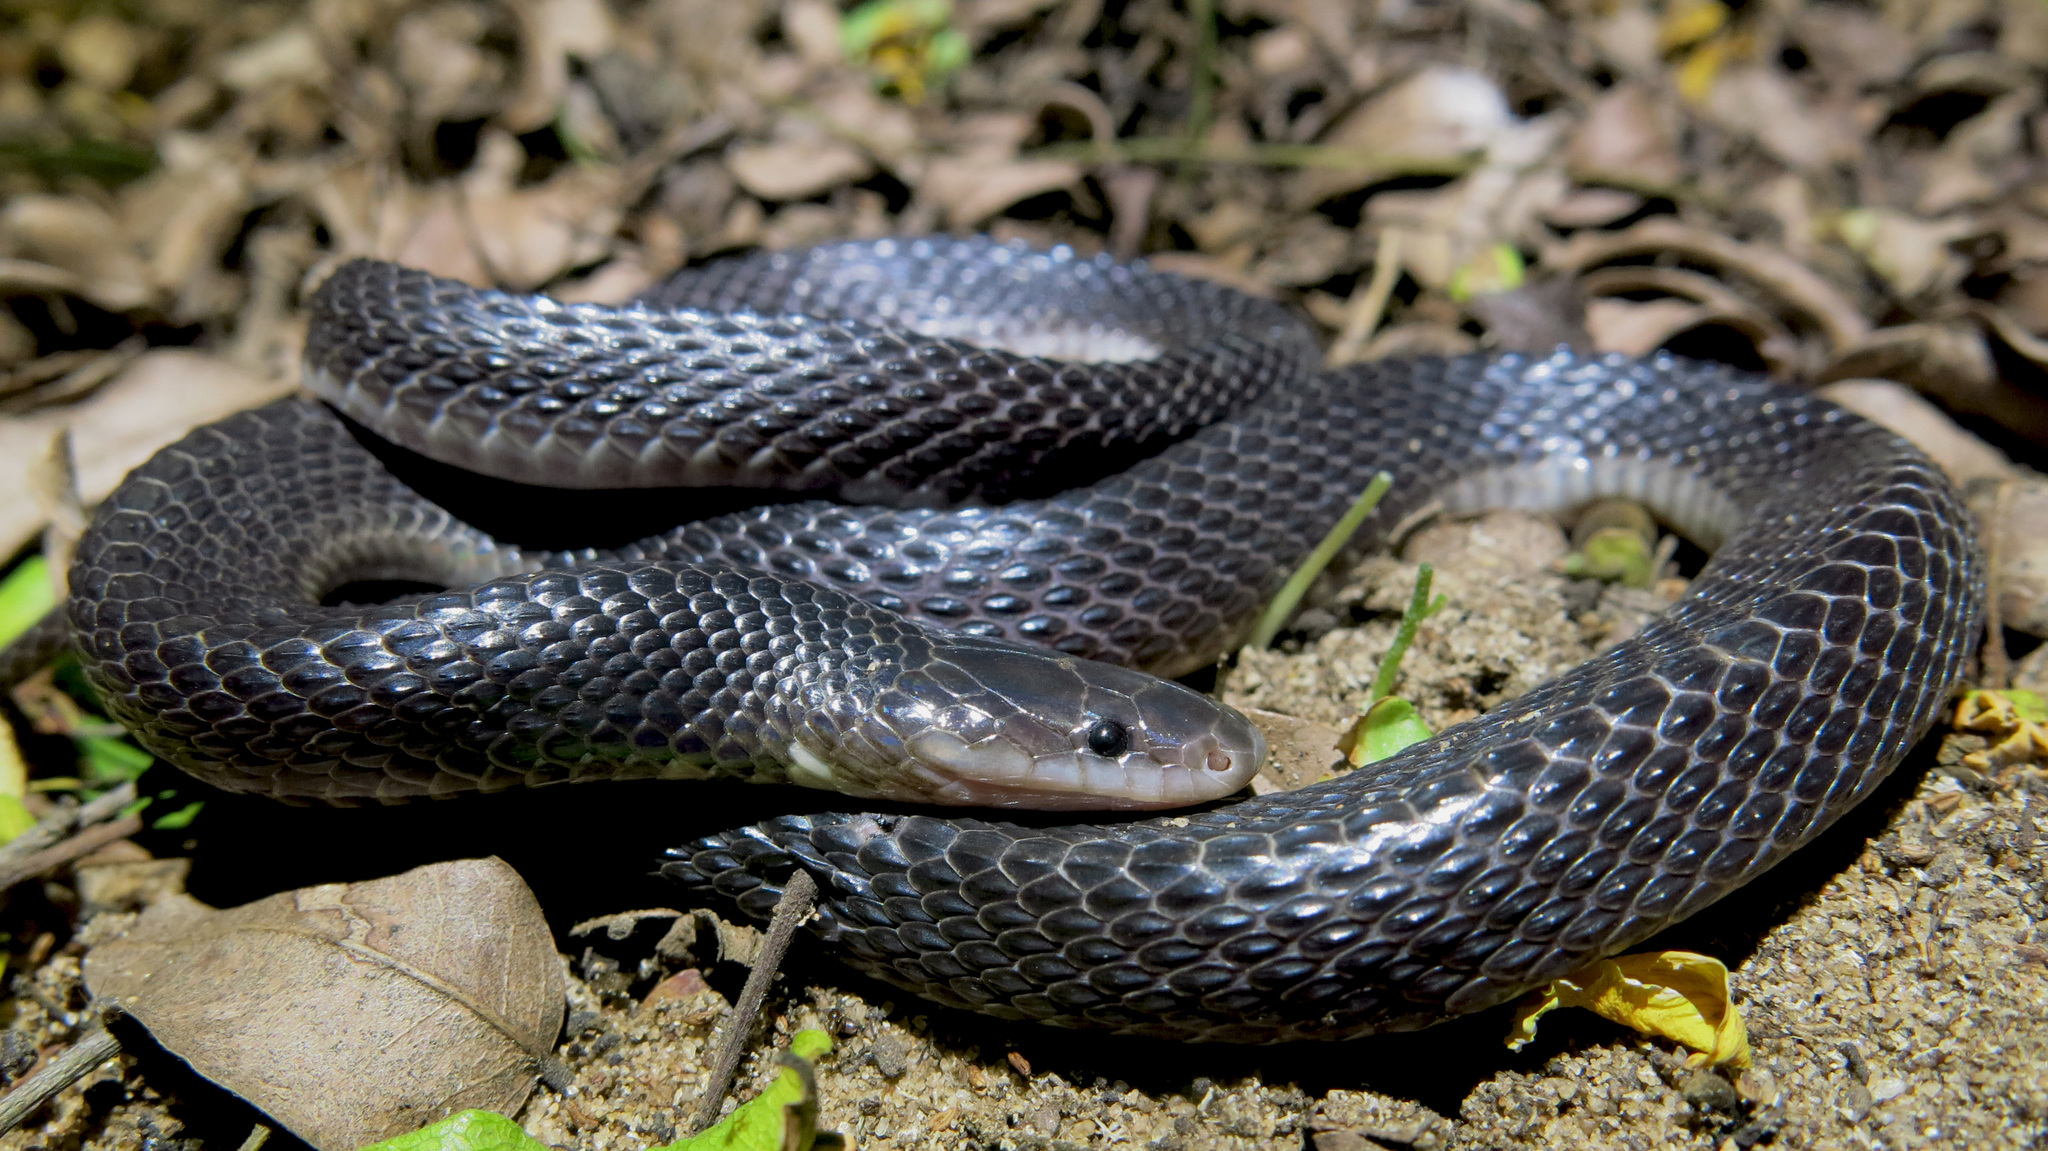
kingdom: Animalia
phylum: Chordata
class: Squamata
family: Lamprophiidae
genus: Gracililima
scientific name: Gracililima nyassae
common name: Black file snake
